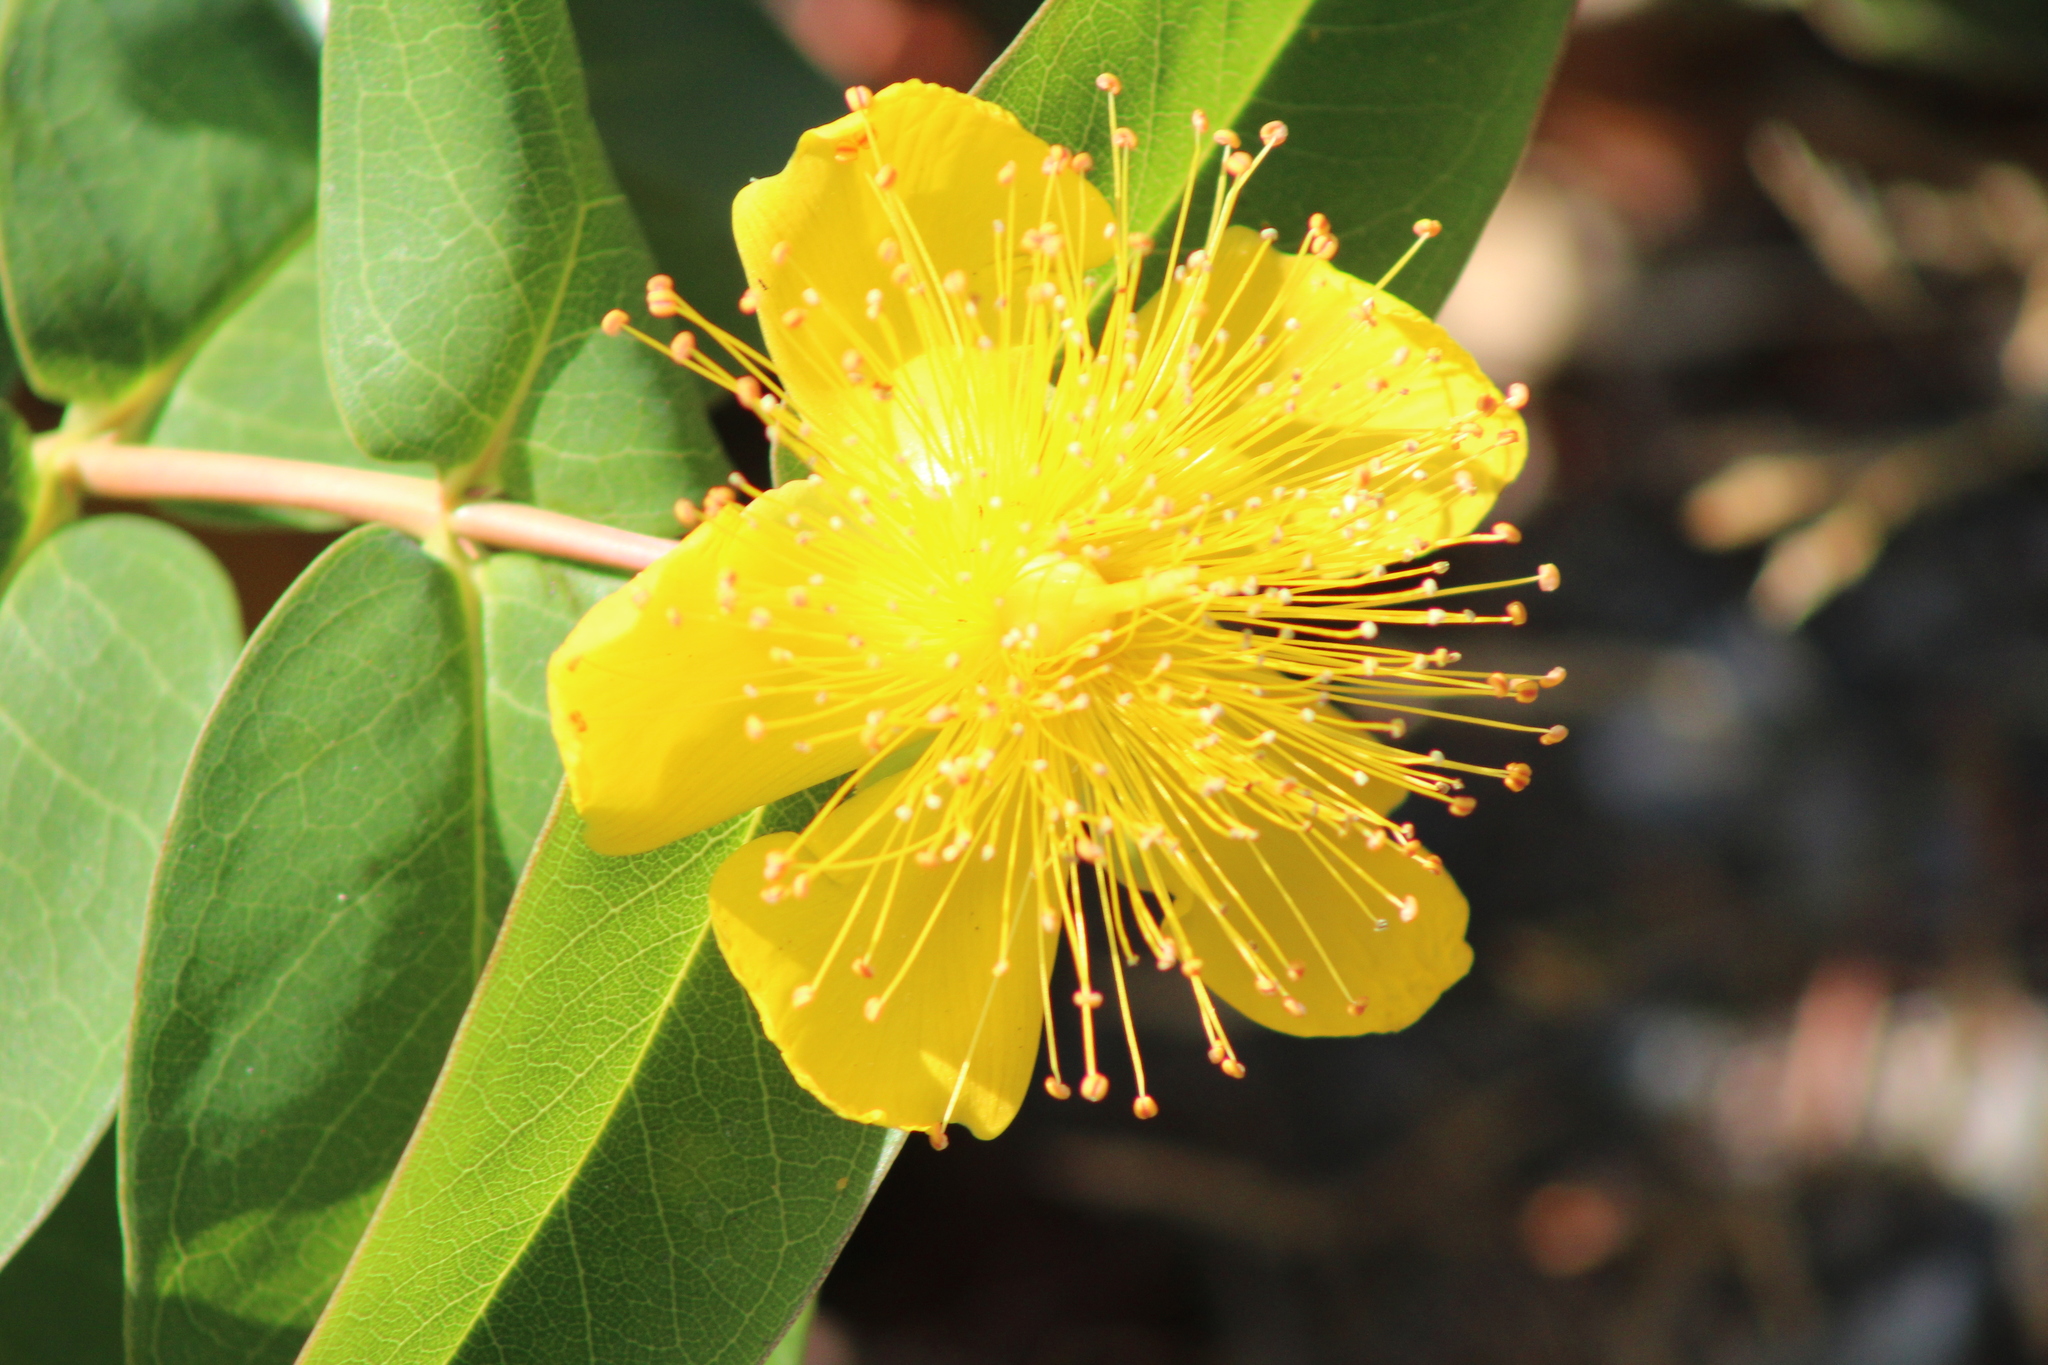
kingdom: Plantae
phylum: Tracheophyta
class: Magnoliopsida
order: Malpighiales
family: Hypericaceae
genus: Hypericum
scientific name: Hypericum calycinum
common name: Rose-of-sharon
